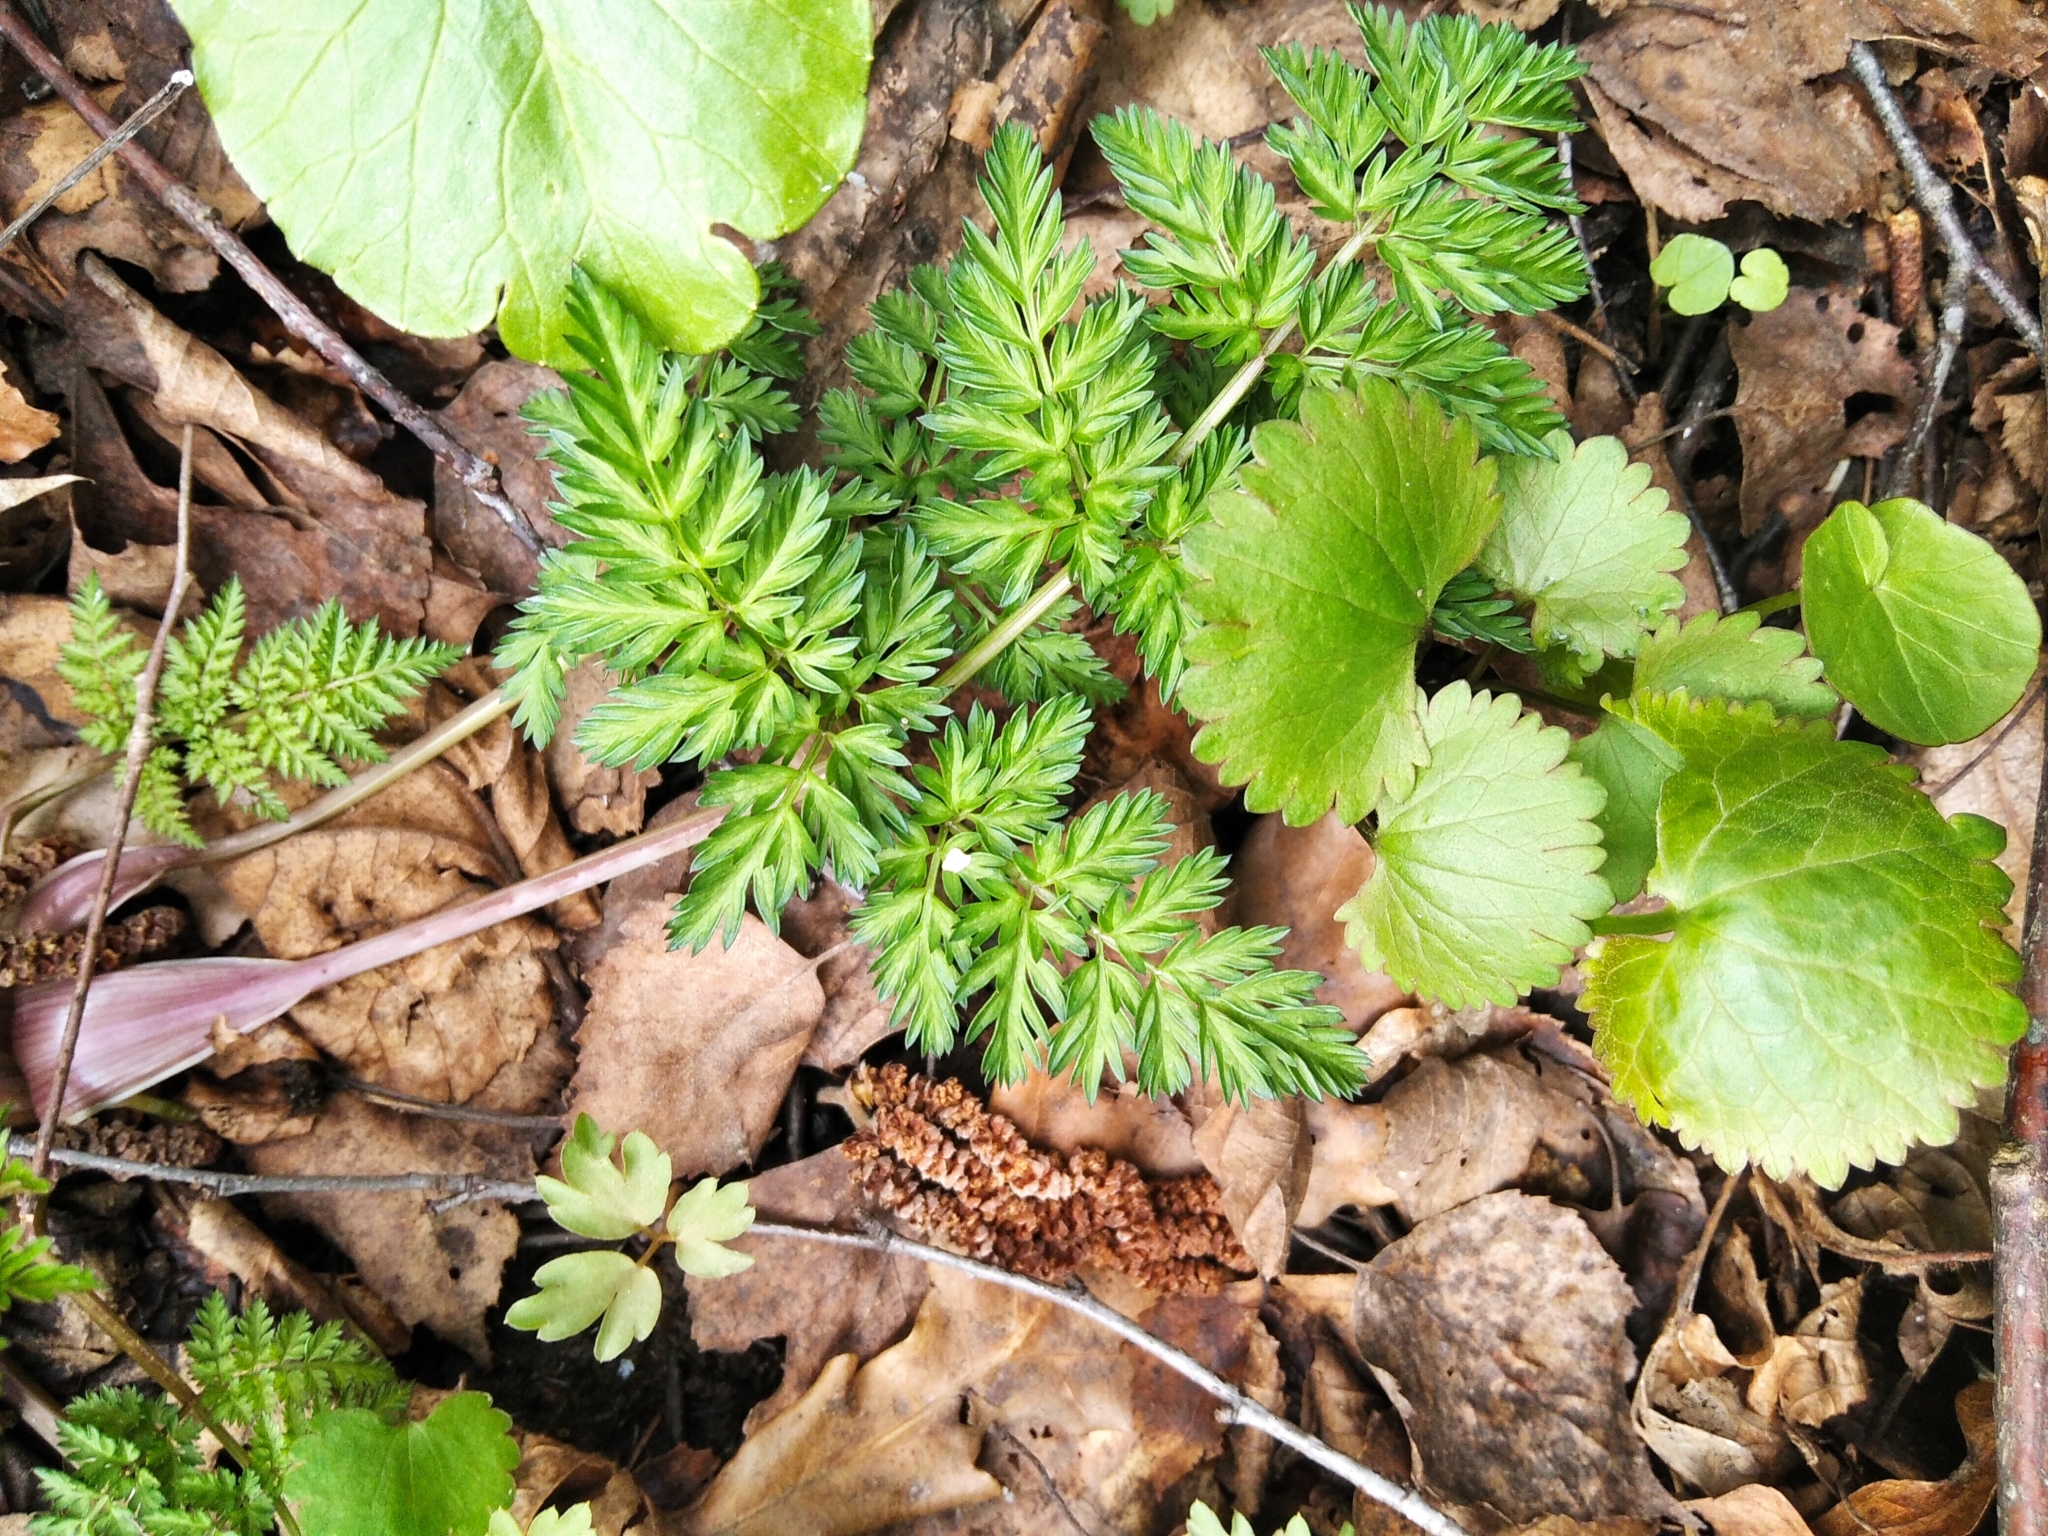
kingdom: Plantae
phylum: Tracheophyta
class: Magnoliopsida
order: Apiales
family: Apiaceae
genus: Anthriscus
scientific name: Anthriscus sylvestris
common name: Cow parsley
